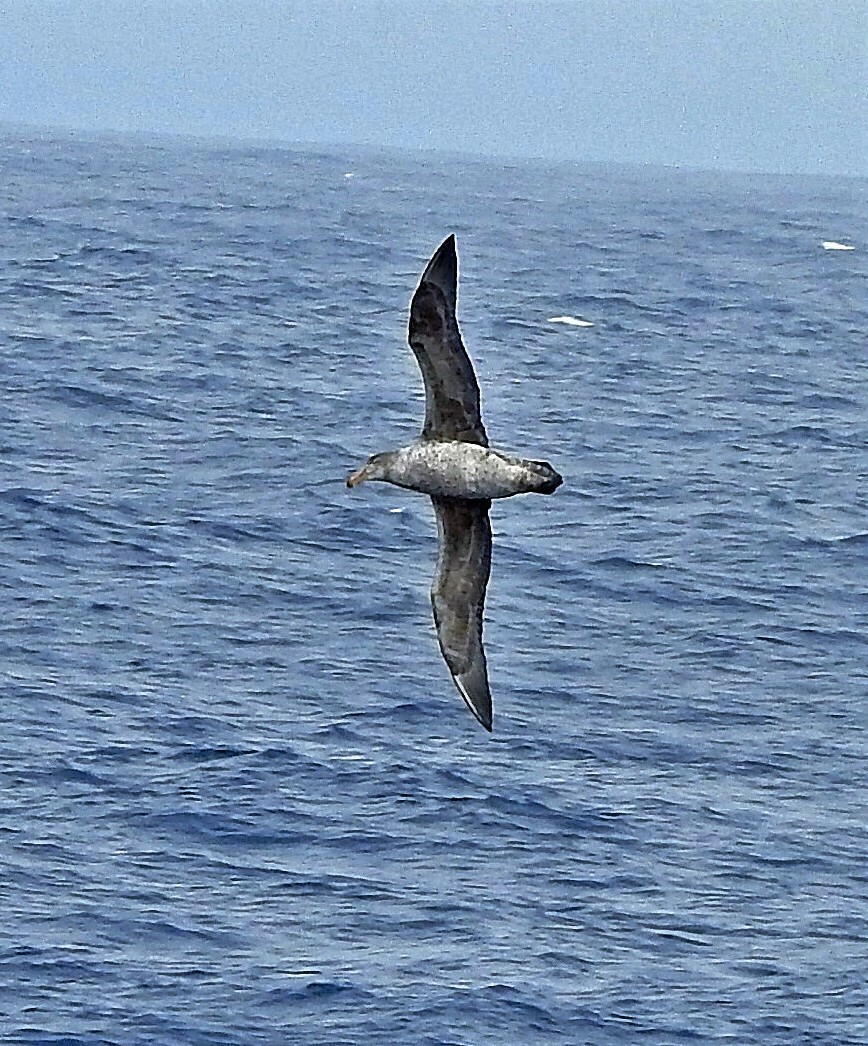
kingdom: Animalia
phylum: Chordata
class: Aves
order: Procellariiformes
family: Procellariidae
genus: Macronectes
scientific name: Macronectes halli
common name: Northern giant petrel
